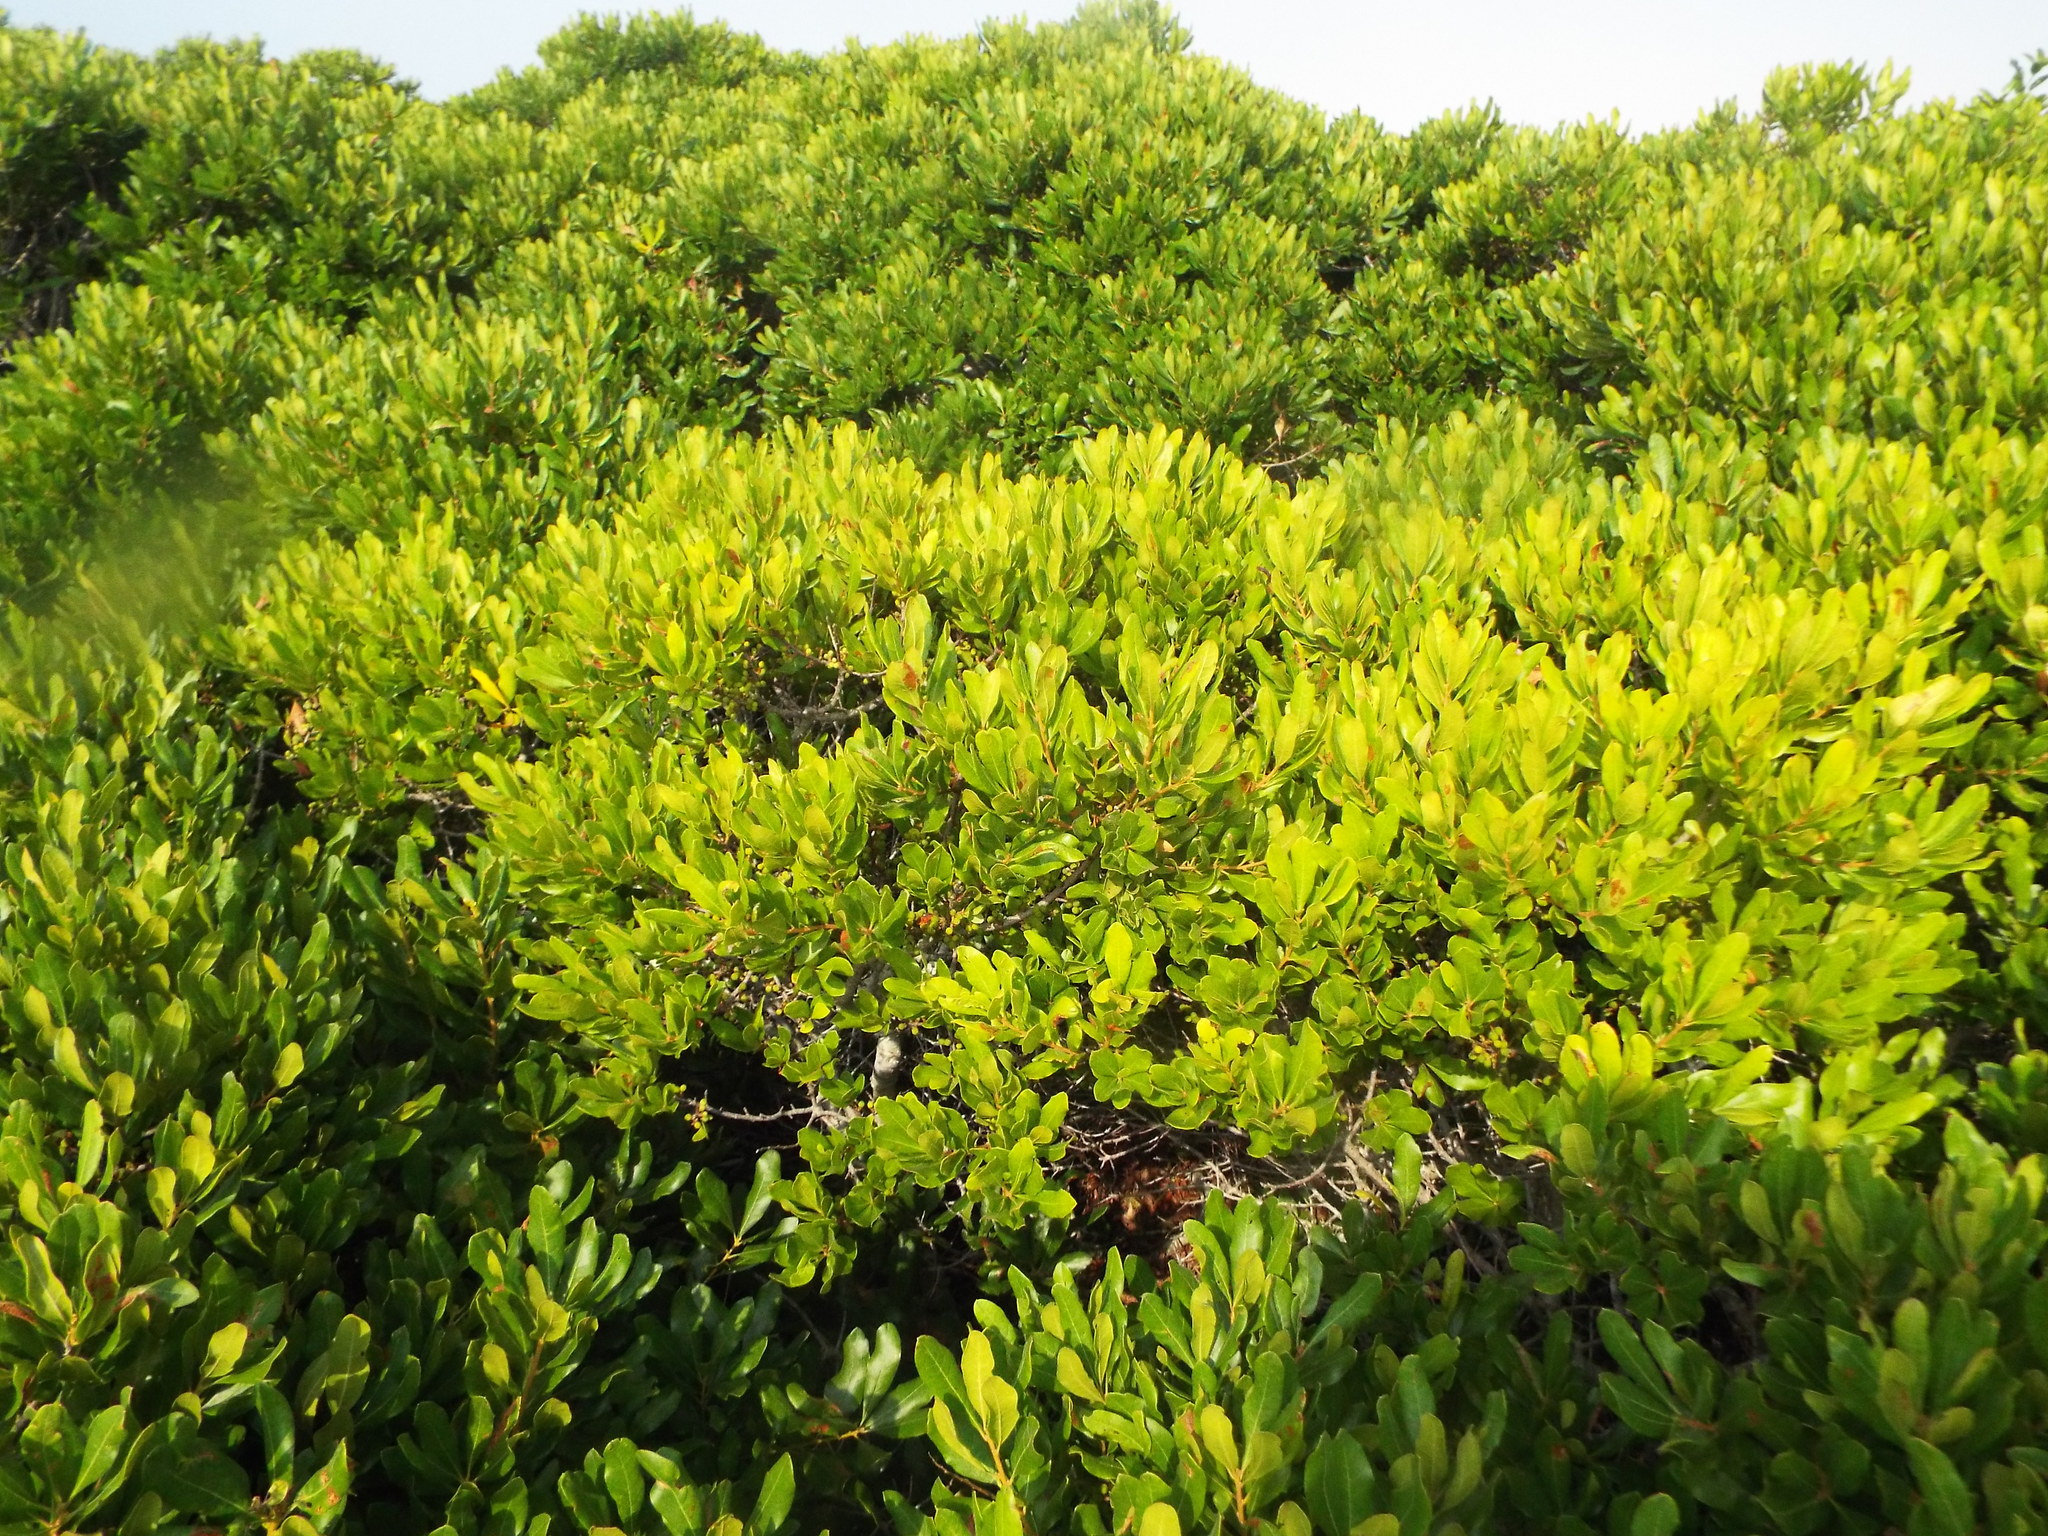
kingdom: Plantae
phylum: Tracheophyta
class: Magnoliopsida
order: Fagales
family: Myricaceae
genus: Morella
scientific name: Morella pensylvanica
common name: Northern bayberry
